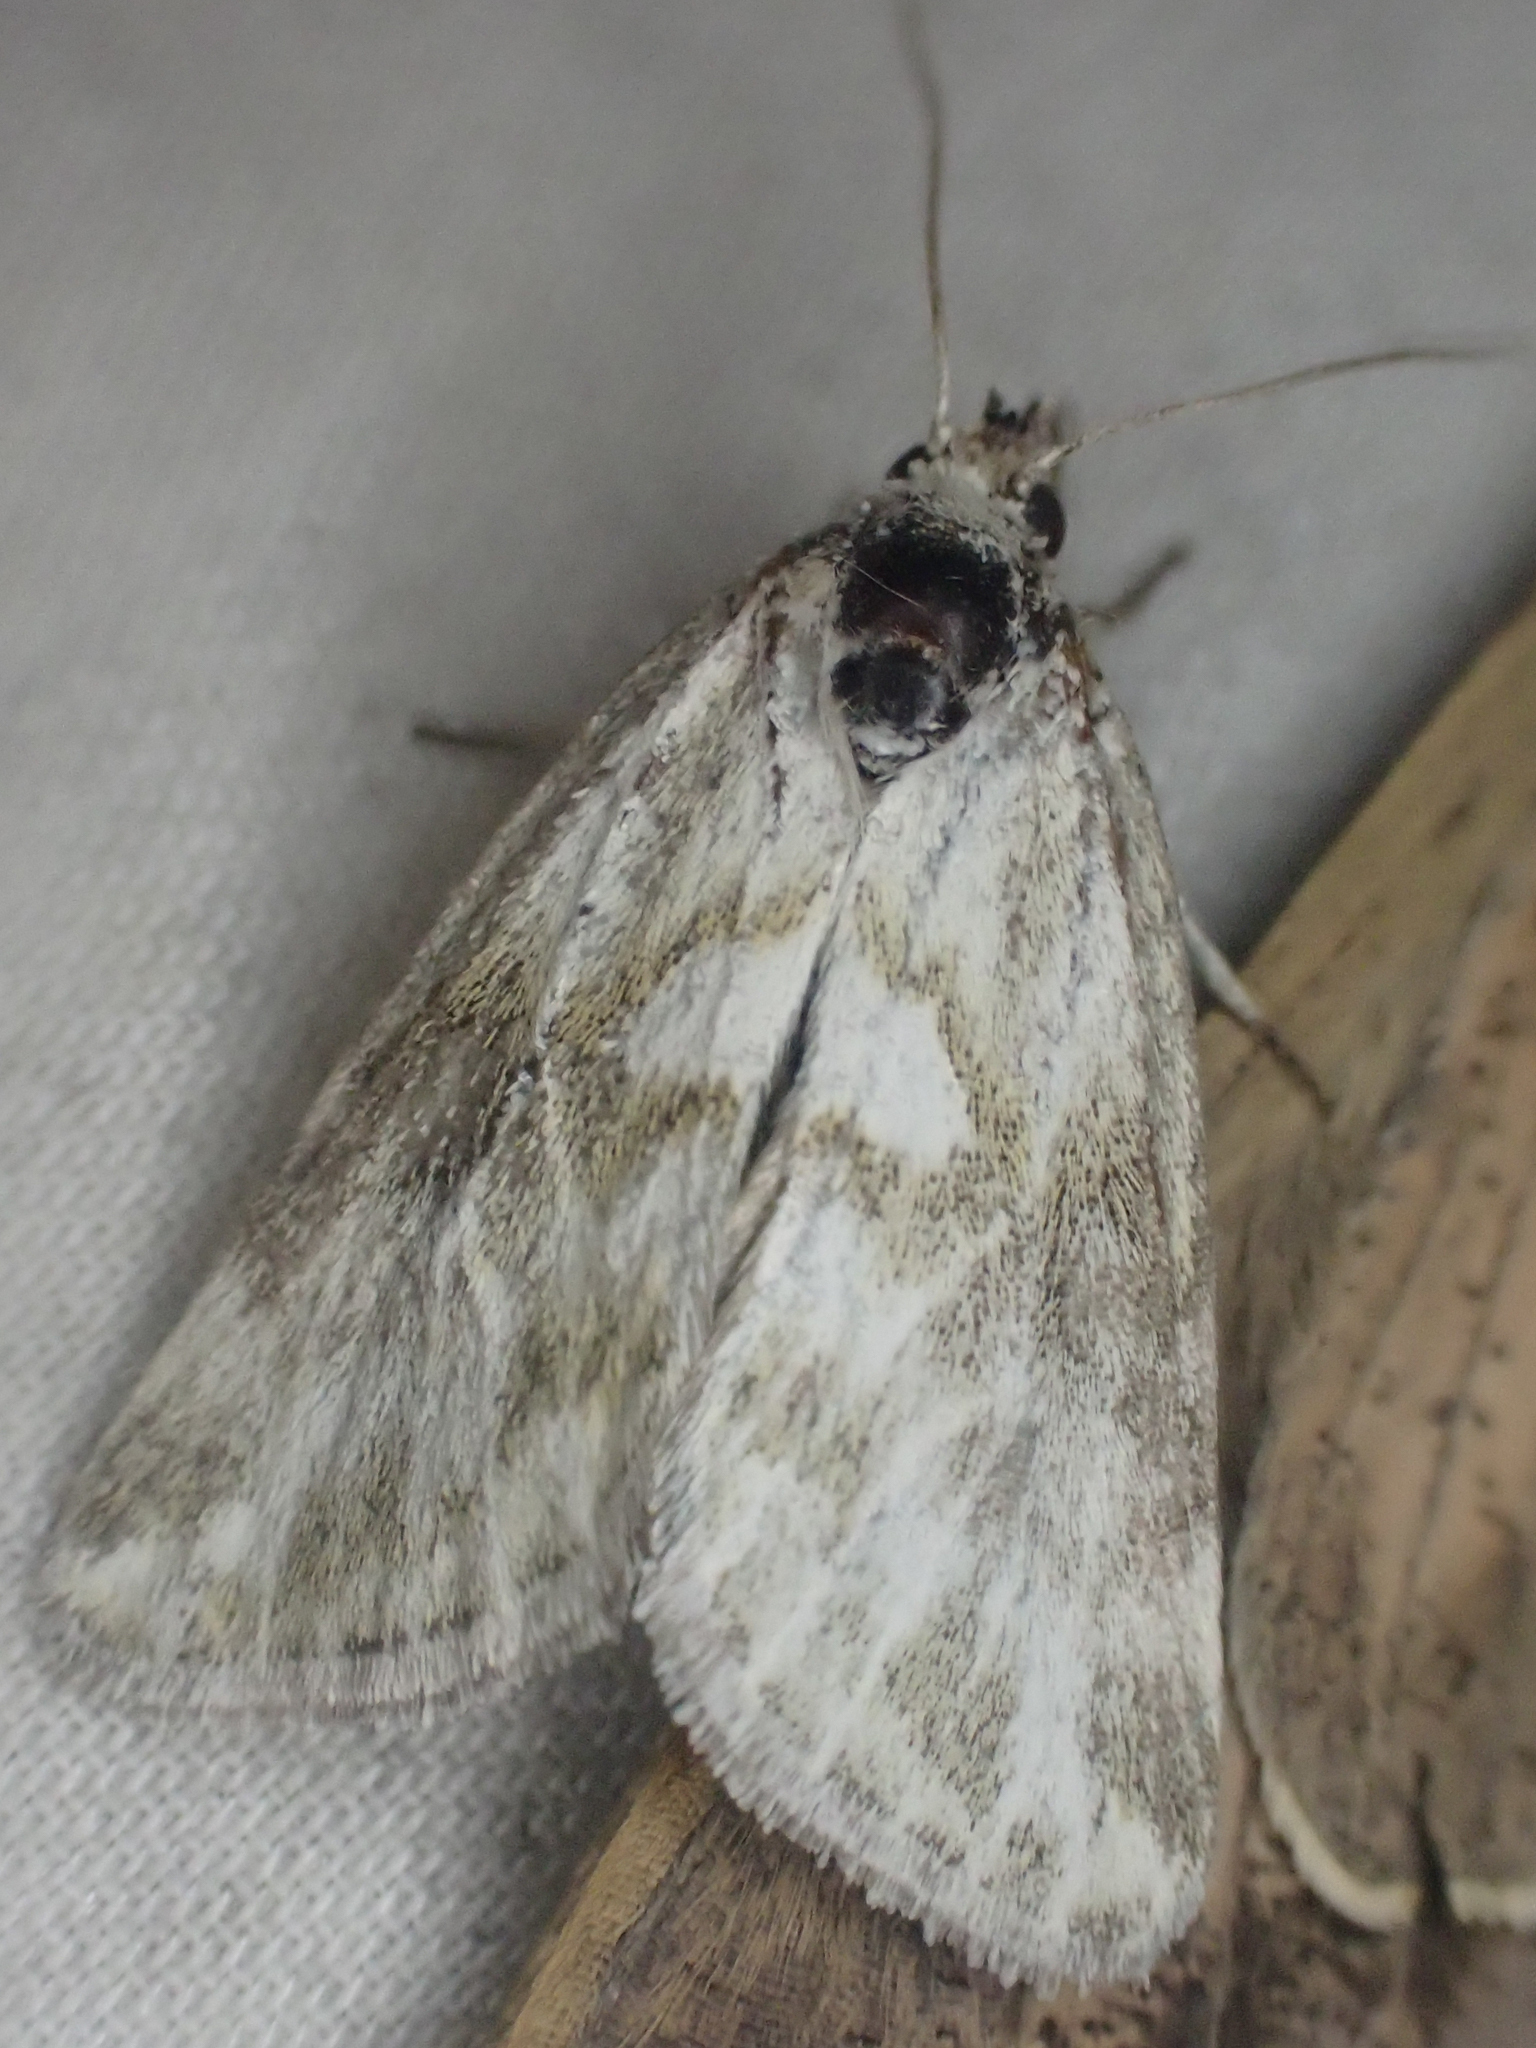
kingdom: Animalia
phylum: Arthropoda
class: Insecta
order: Lepidoptera
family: Noctuidae
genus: Lineostriastiria
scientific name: Lineostriastiria olivalis
